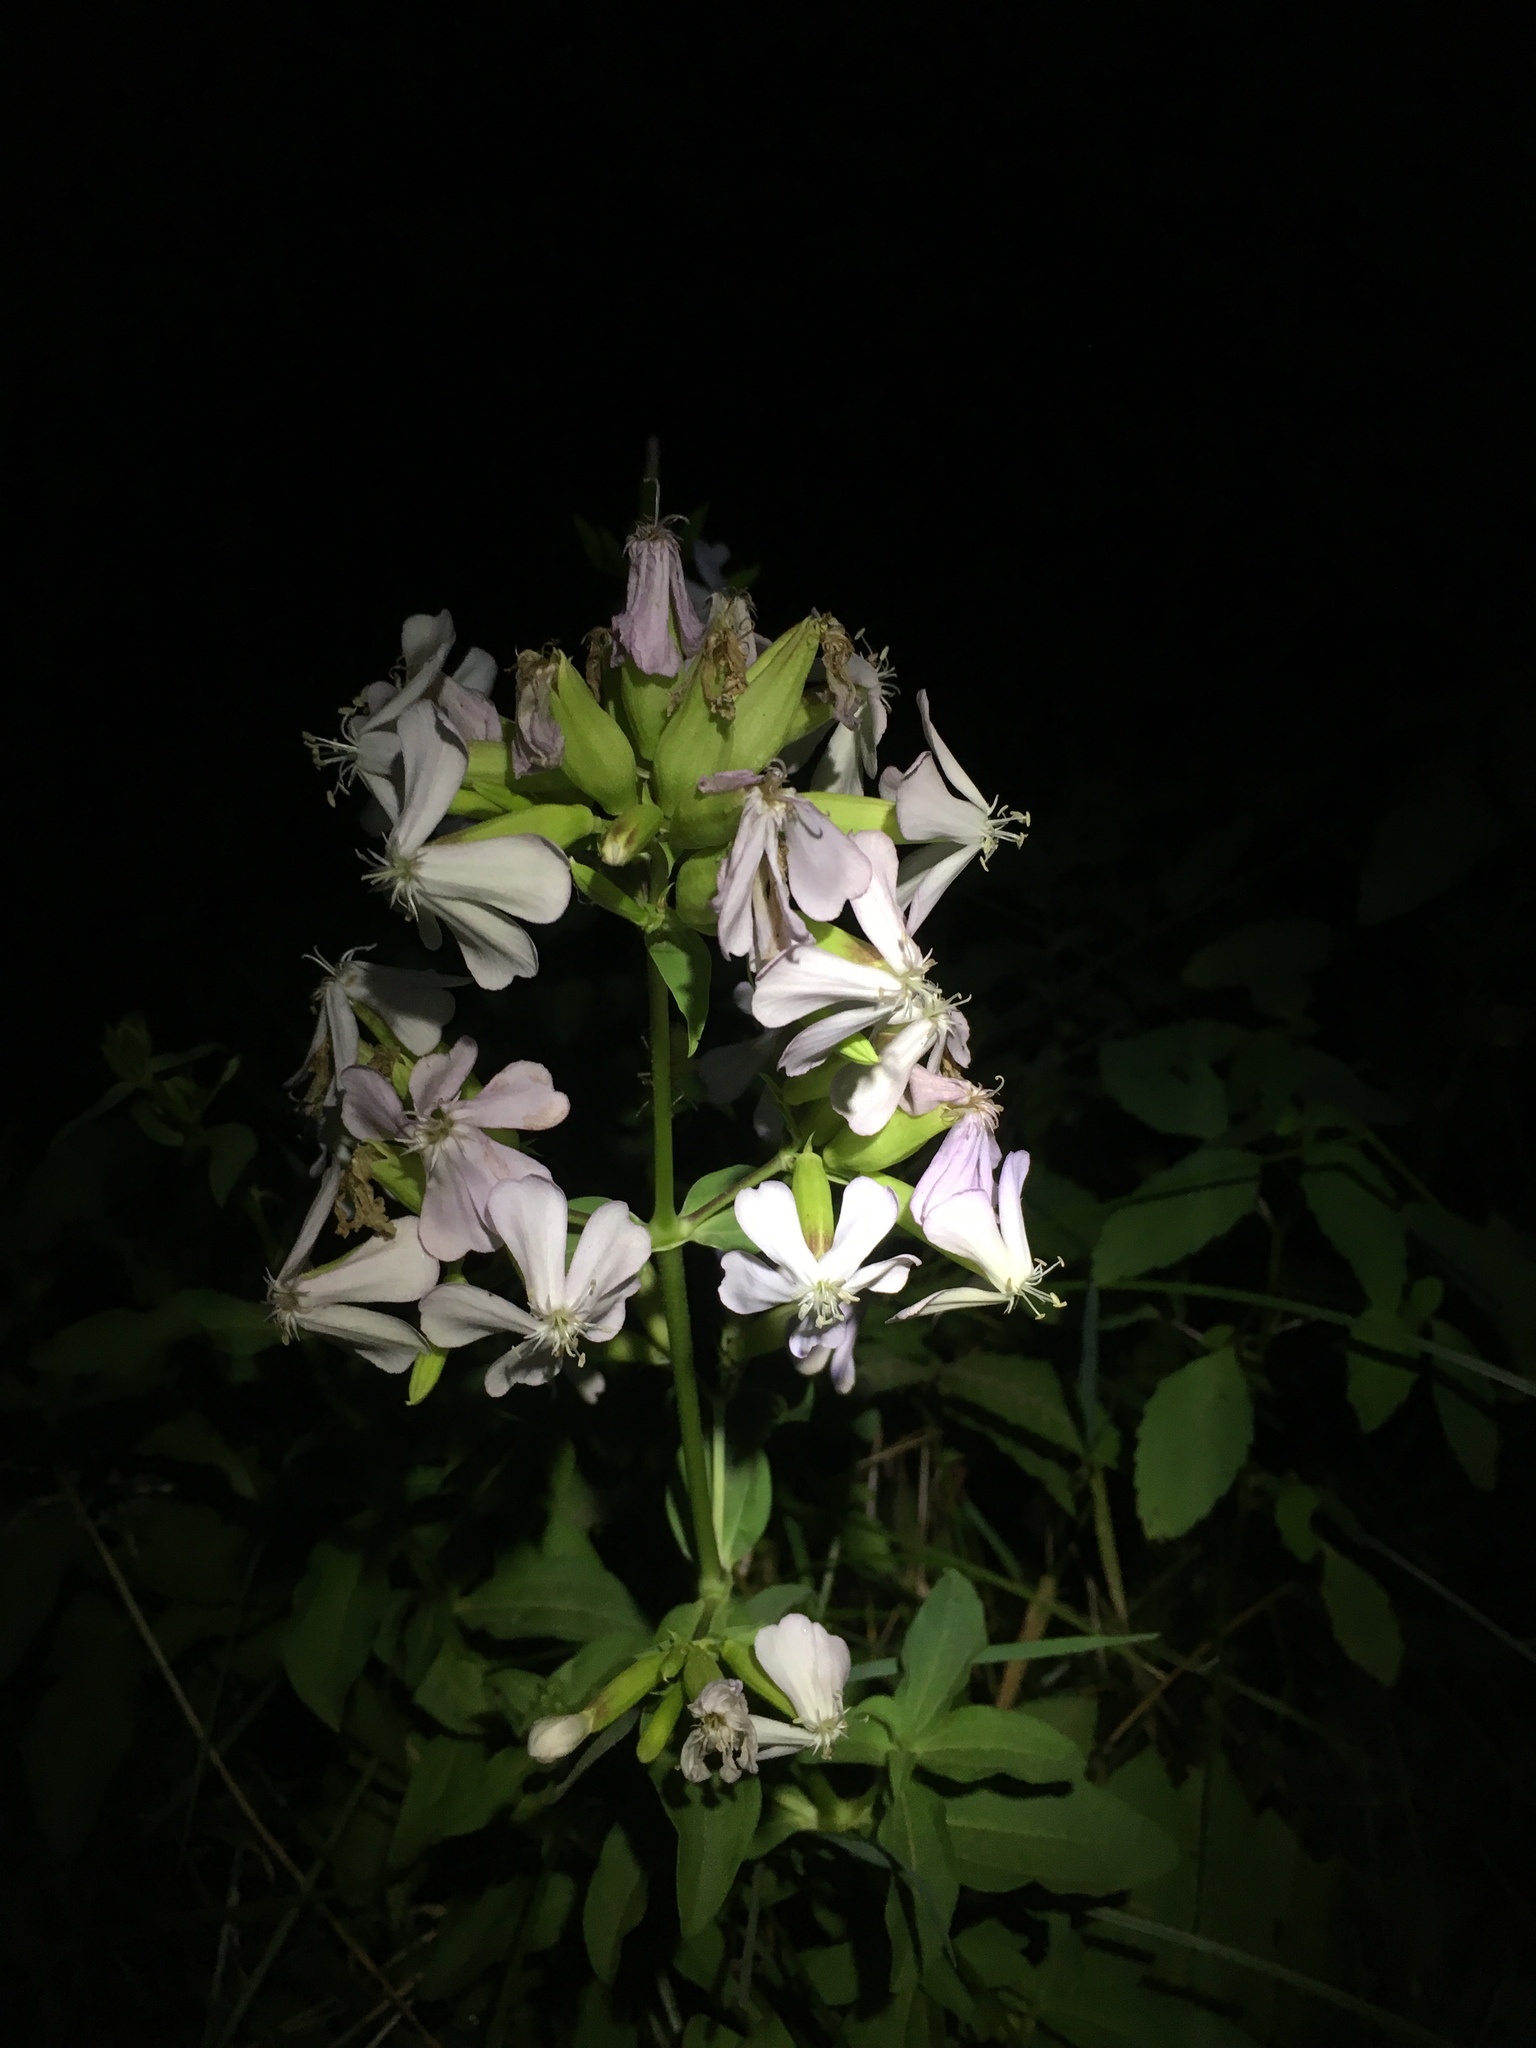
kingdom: Plantae
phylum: Tracheophyta
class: Magnoliopsida
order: Caryophyllales
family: Caryophyllaceae
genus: Saponaria
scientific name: Saponaria officinalis
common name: Soapwort
